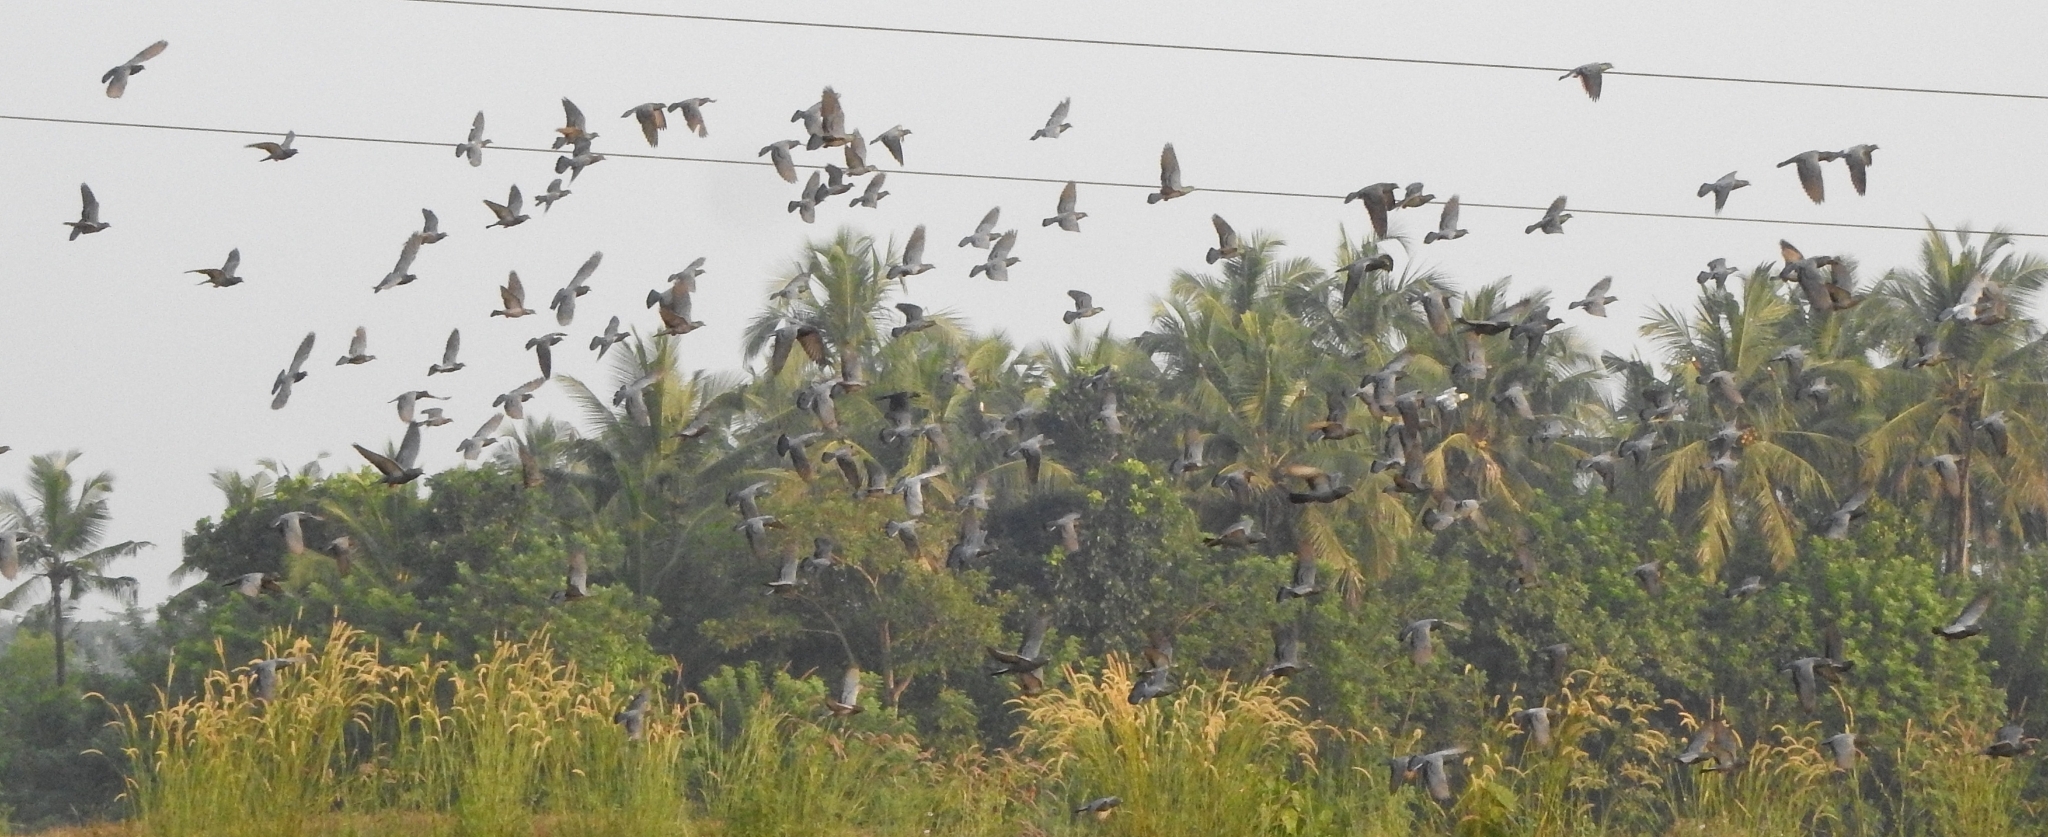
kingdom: Animalia
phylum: Chordata
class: Aves
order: Columbiformes
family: Columbidae
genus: Columba
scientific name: Columba livia
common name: Rock pigeon
